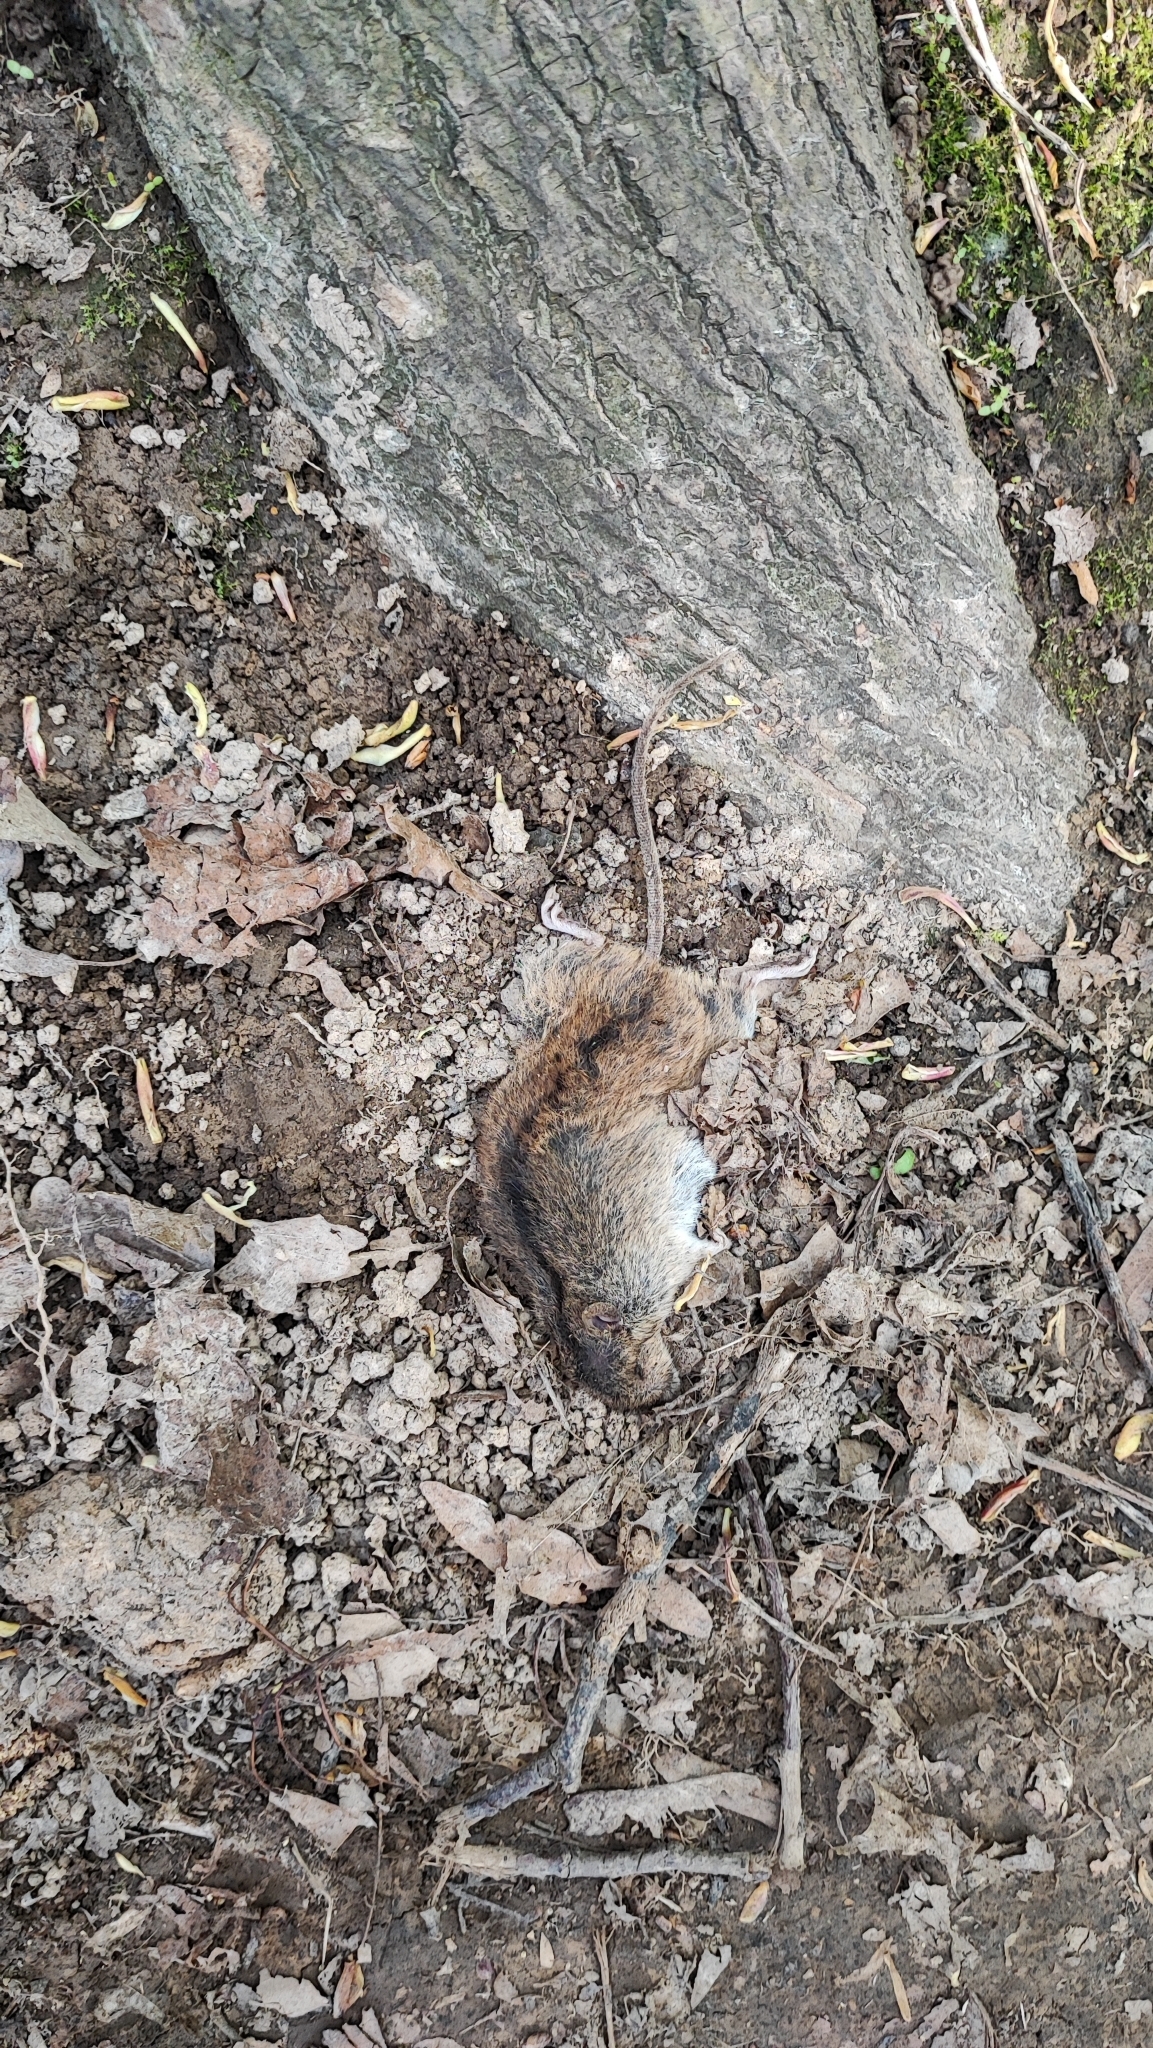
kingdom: Animalia
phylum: Chordata
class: Mammalia
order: Rodentia
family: Muridae
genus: Apodemus
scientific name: Apodemus agrarius
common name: Striped field mouse
